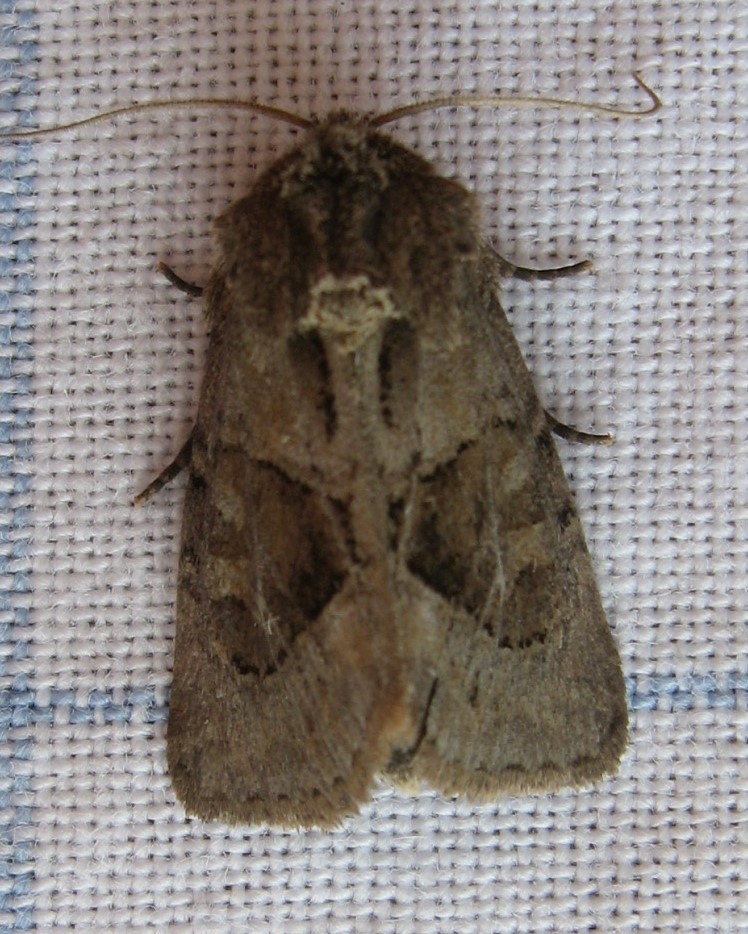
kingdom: Animalia
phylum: Arthropoda
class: Insecta
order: Lepidoptera
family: Noctuidae
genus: Oligia
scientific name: Oligia obtusa
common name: Obtuse sedge borer
